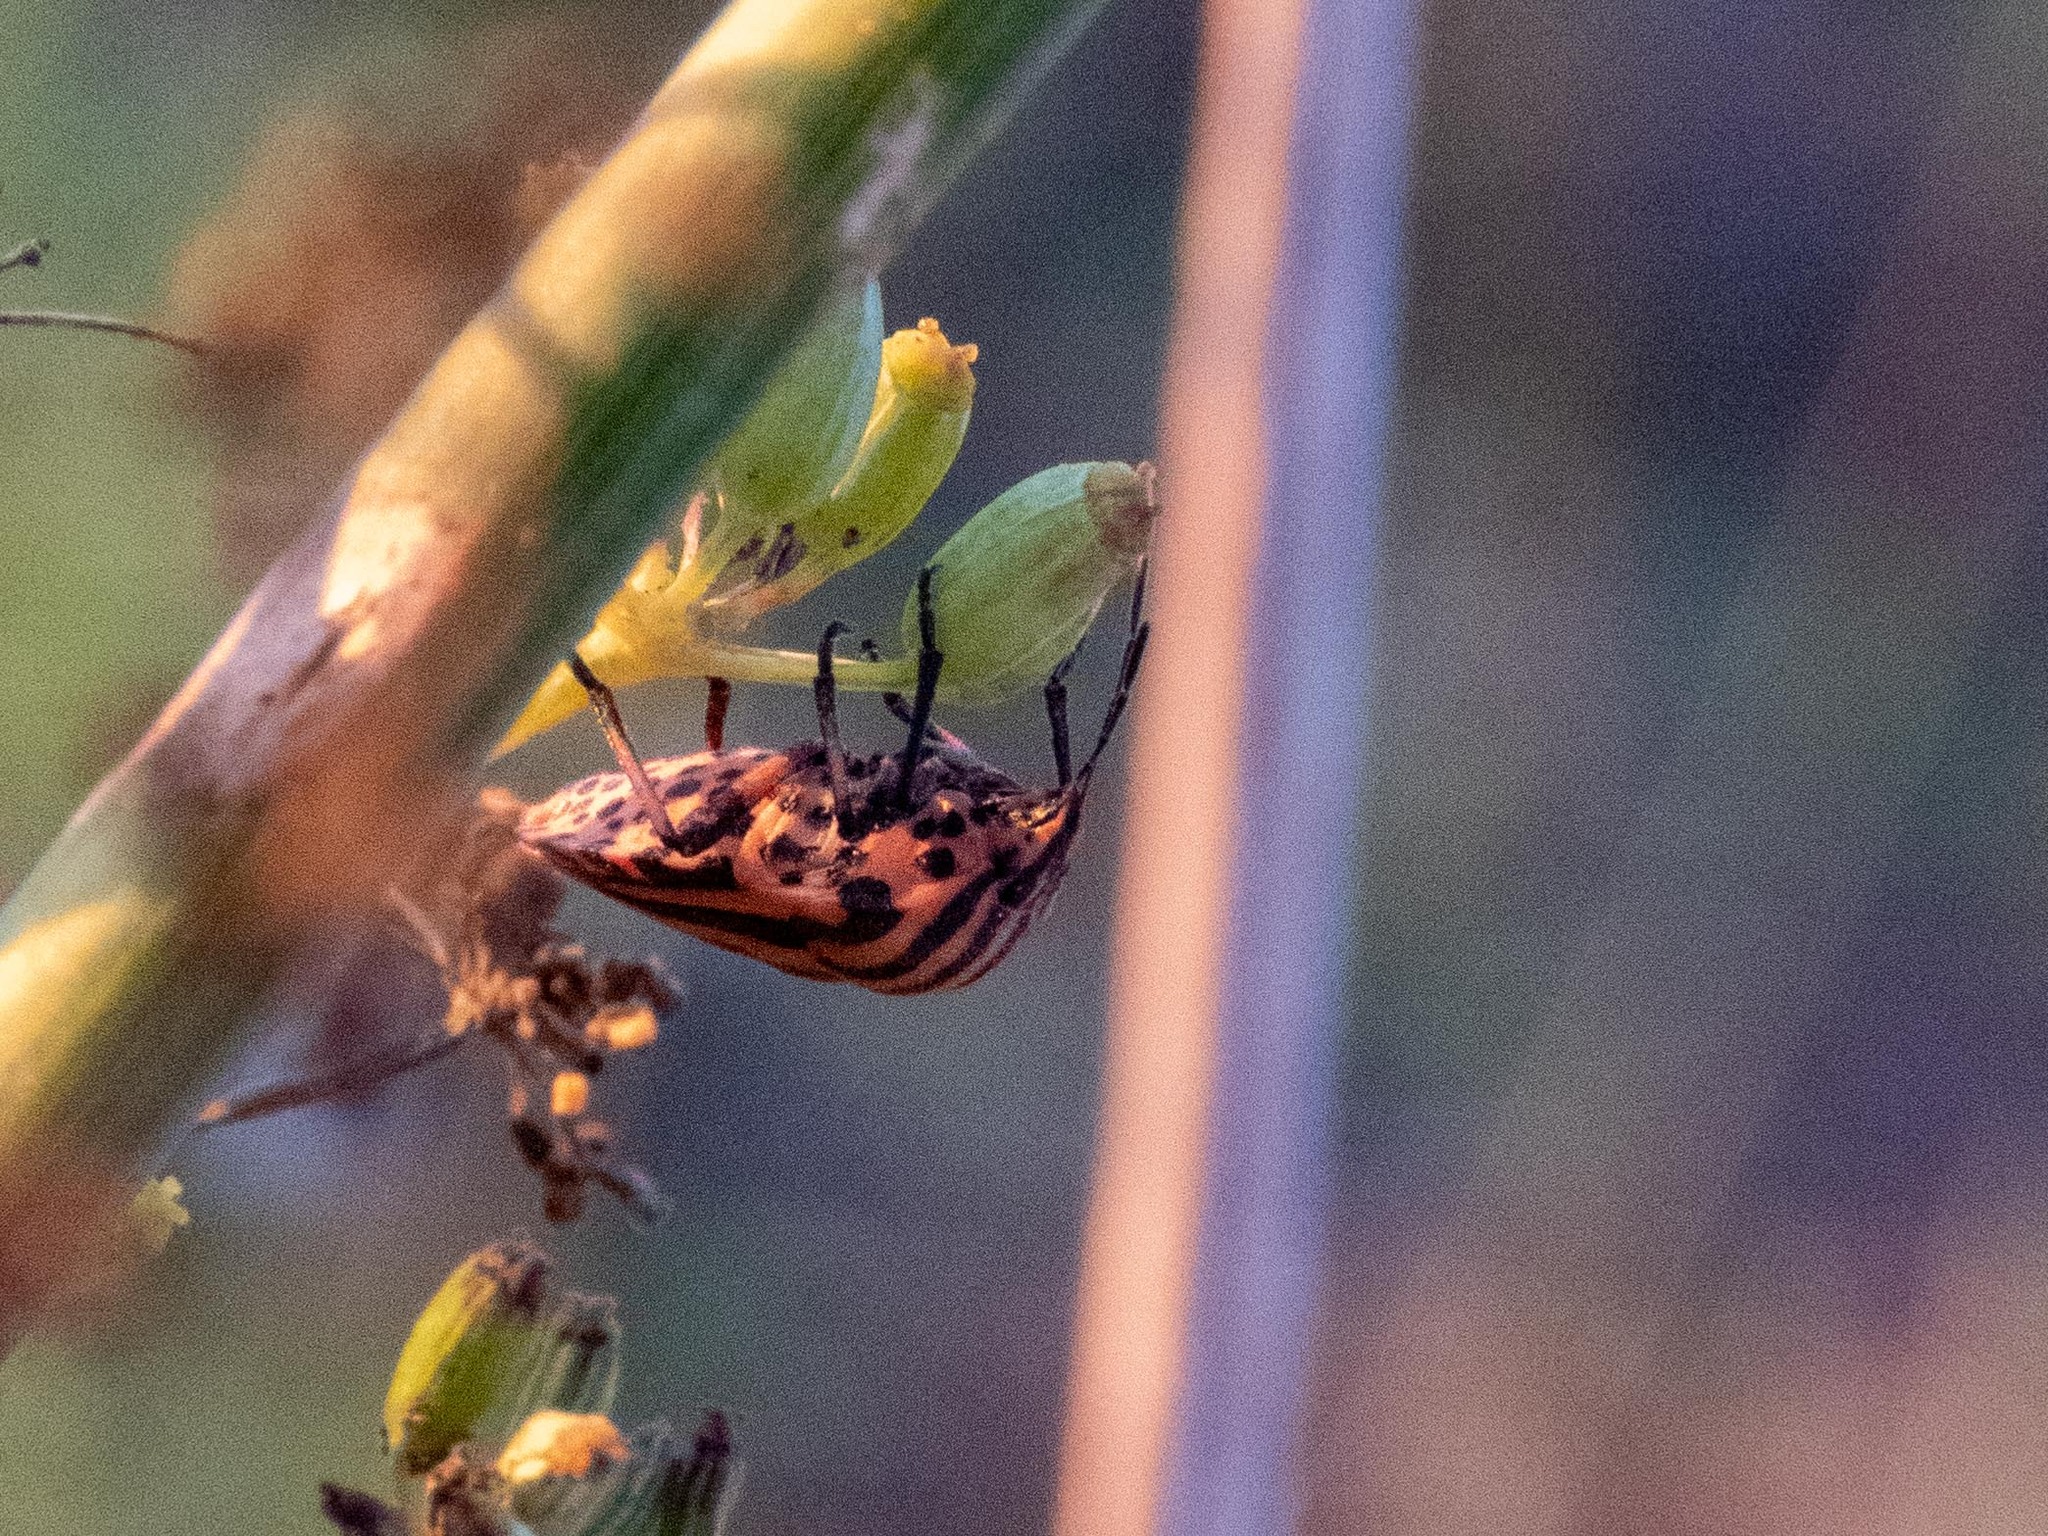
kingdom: Animalia
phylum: Arthropoda
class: Insecta
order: Hemiptera
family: Pentatomidae
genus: Graphosoma
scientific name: Graphosoma italicum
